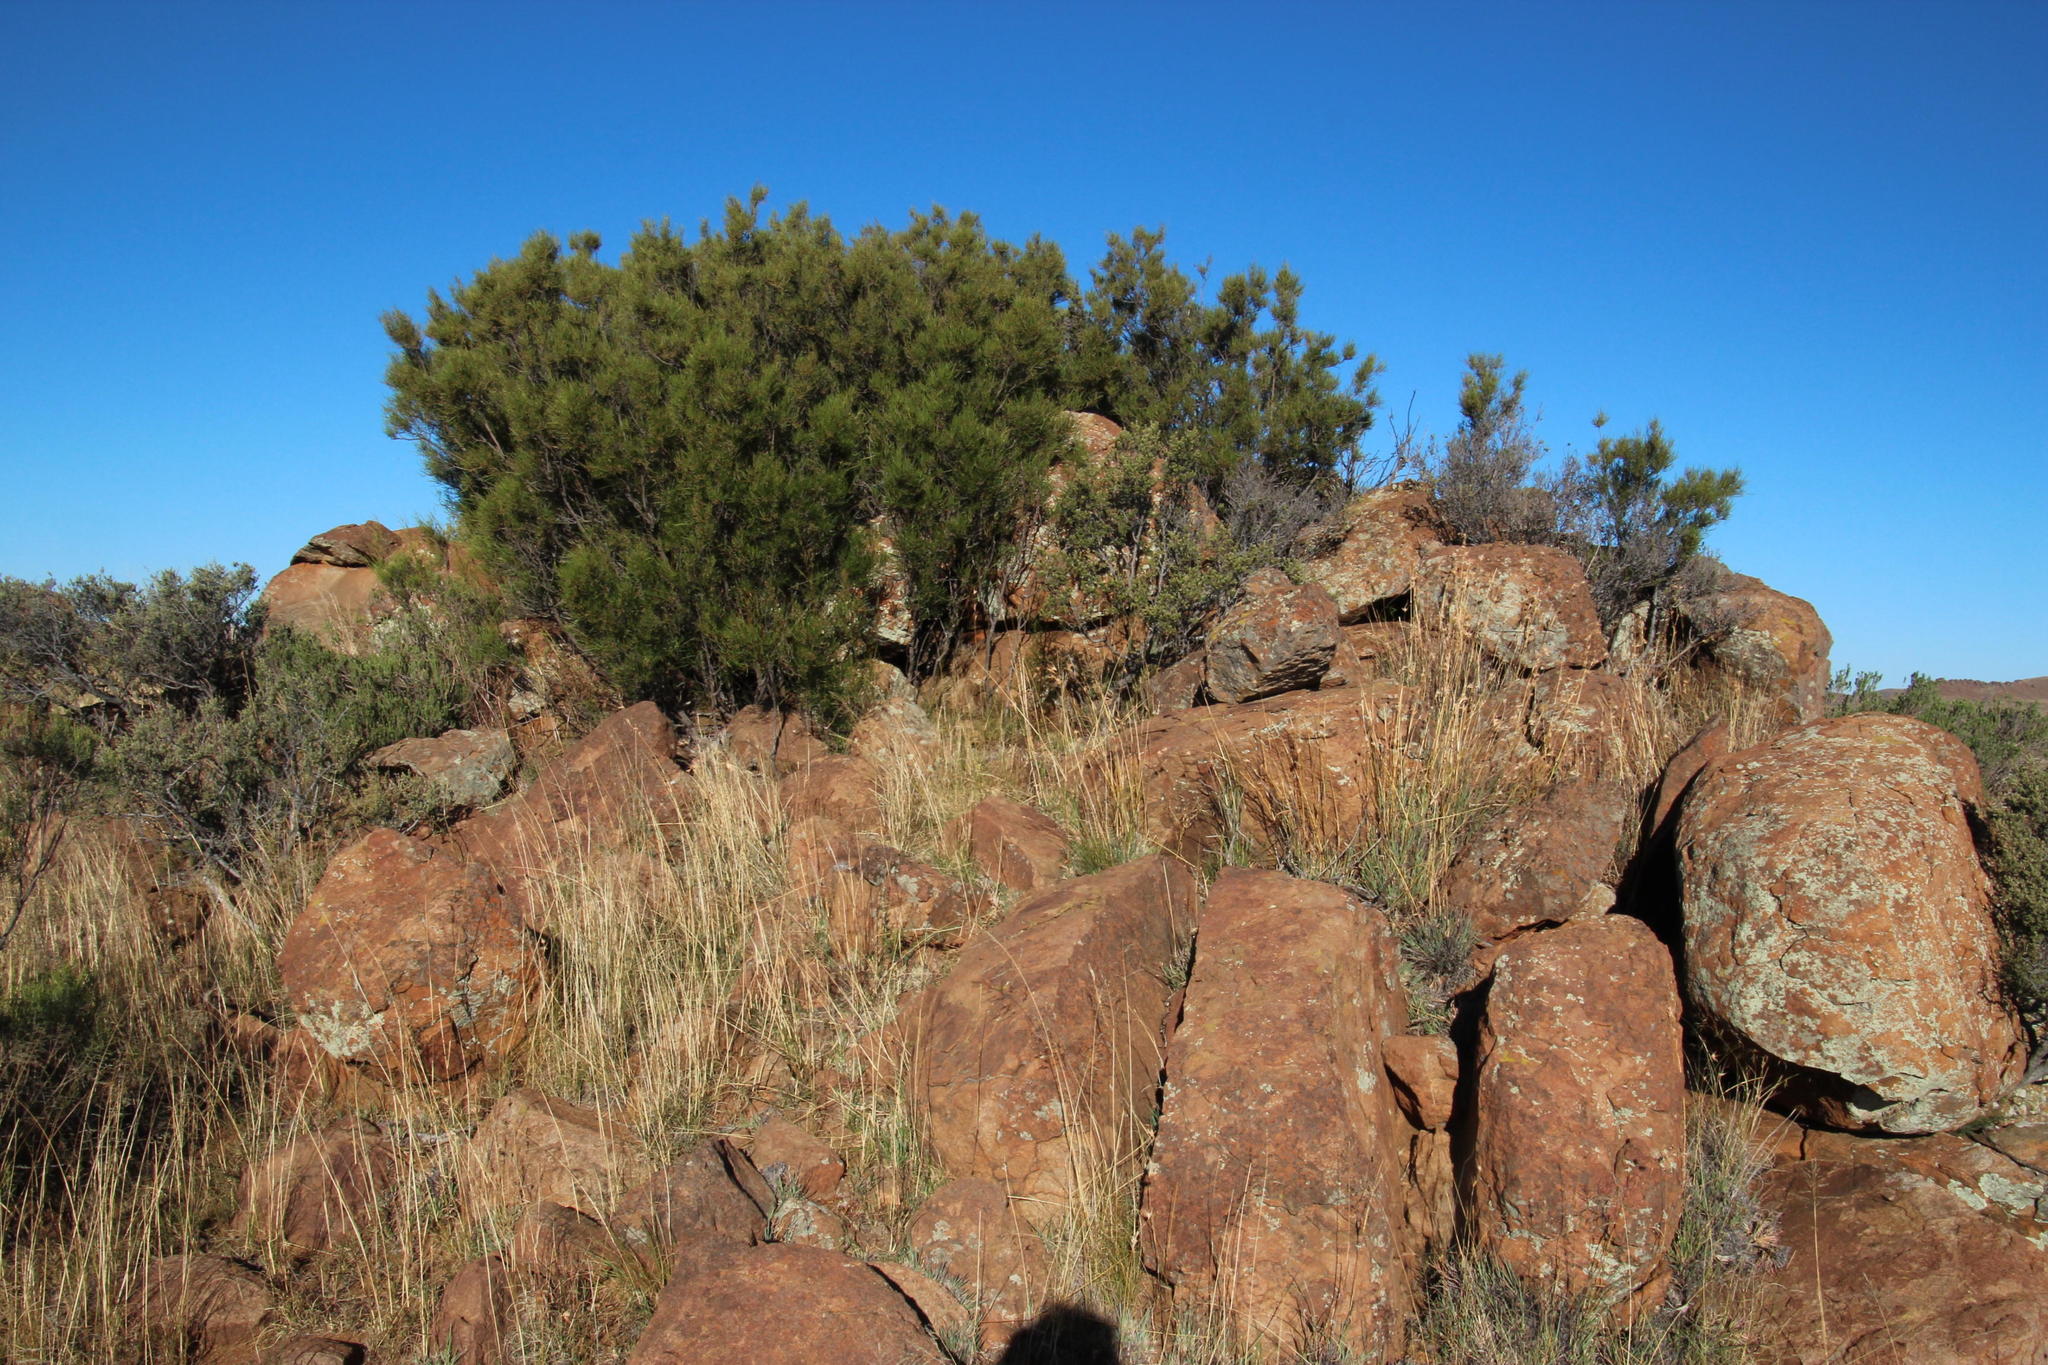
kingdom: Plantae
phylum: Tracheophyta
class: Magnoliopsida
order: Ericales
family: Ebenaceae
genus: Diospyros
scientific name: Diospyros pubescens
